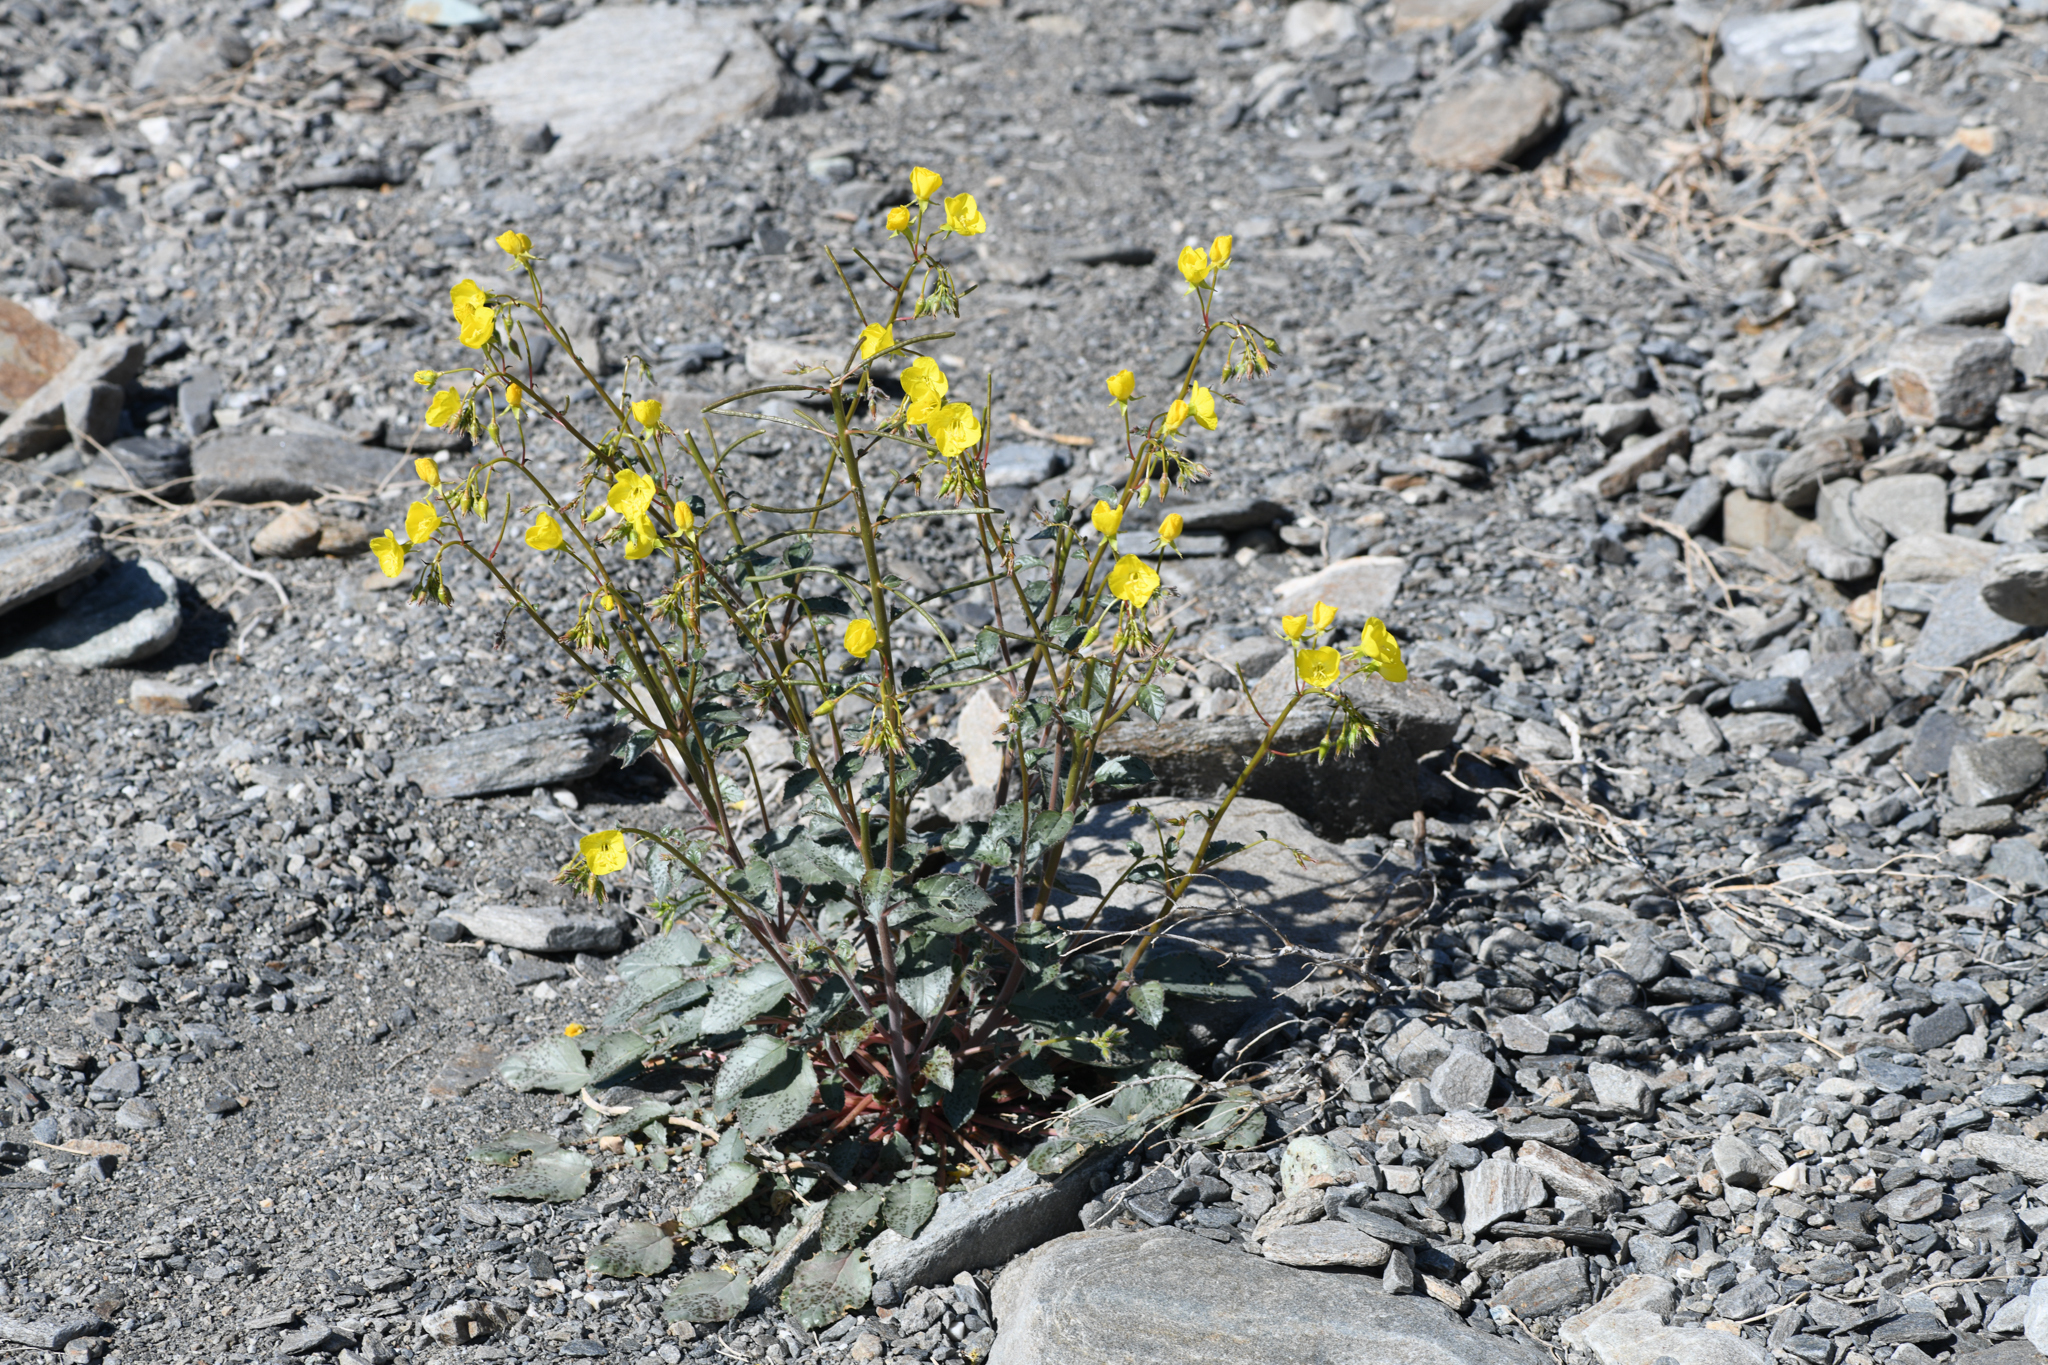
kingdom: Plantae
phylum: Tracheophyta
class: Magnoliopsida
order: Myrtales
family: Onagraceae
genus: Chylismia
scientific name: Chylismia brevipes
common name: Yellow cups
